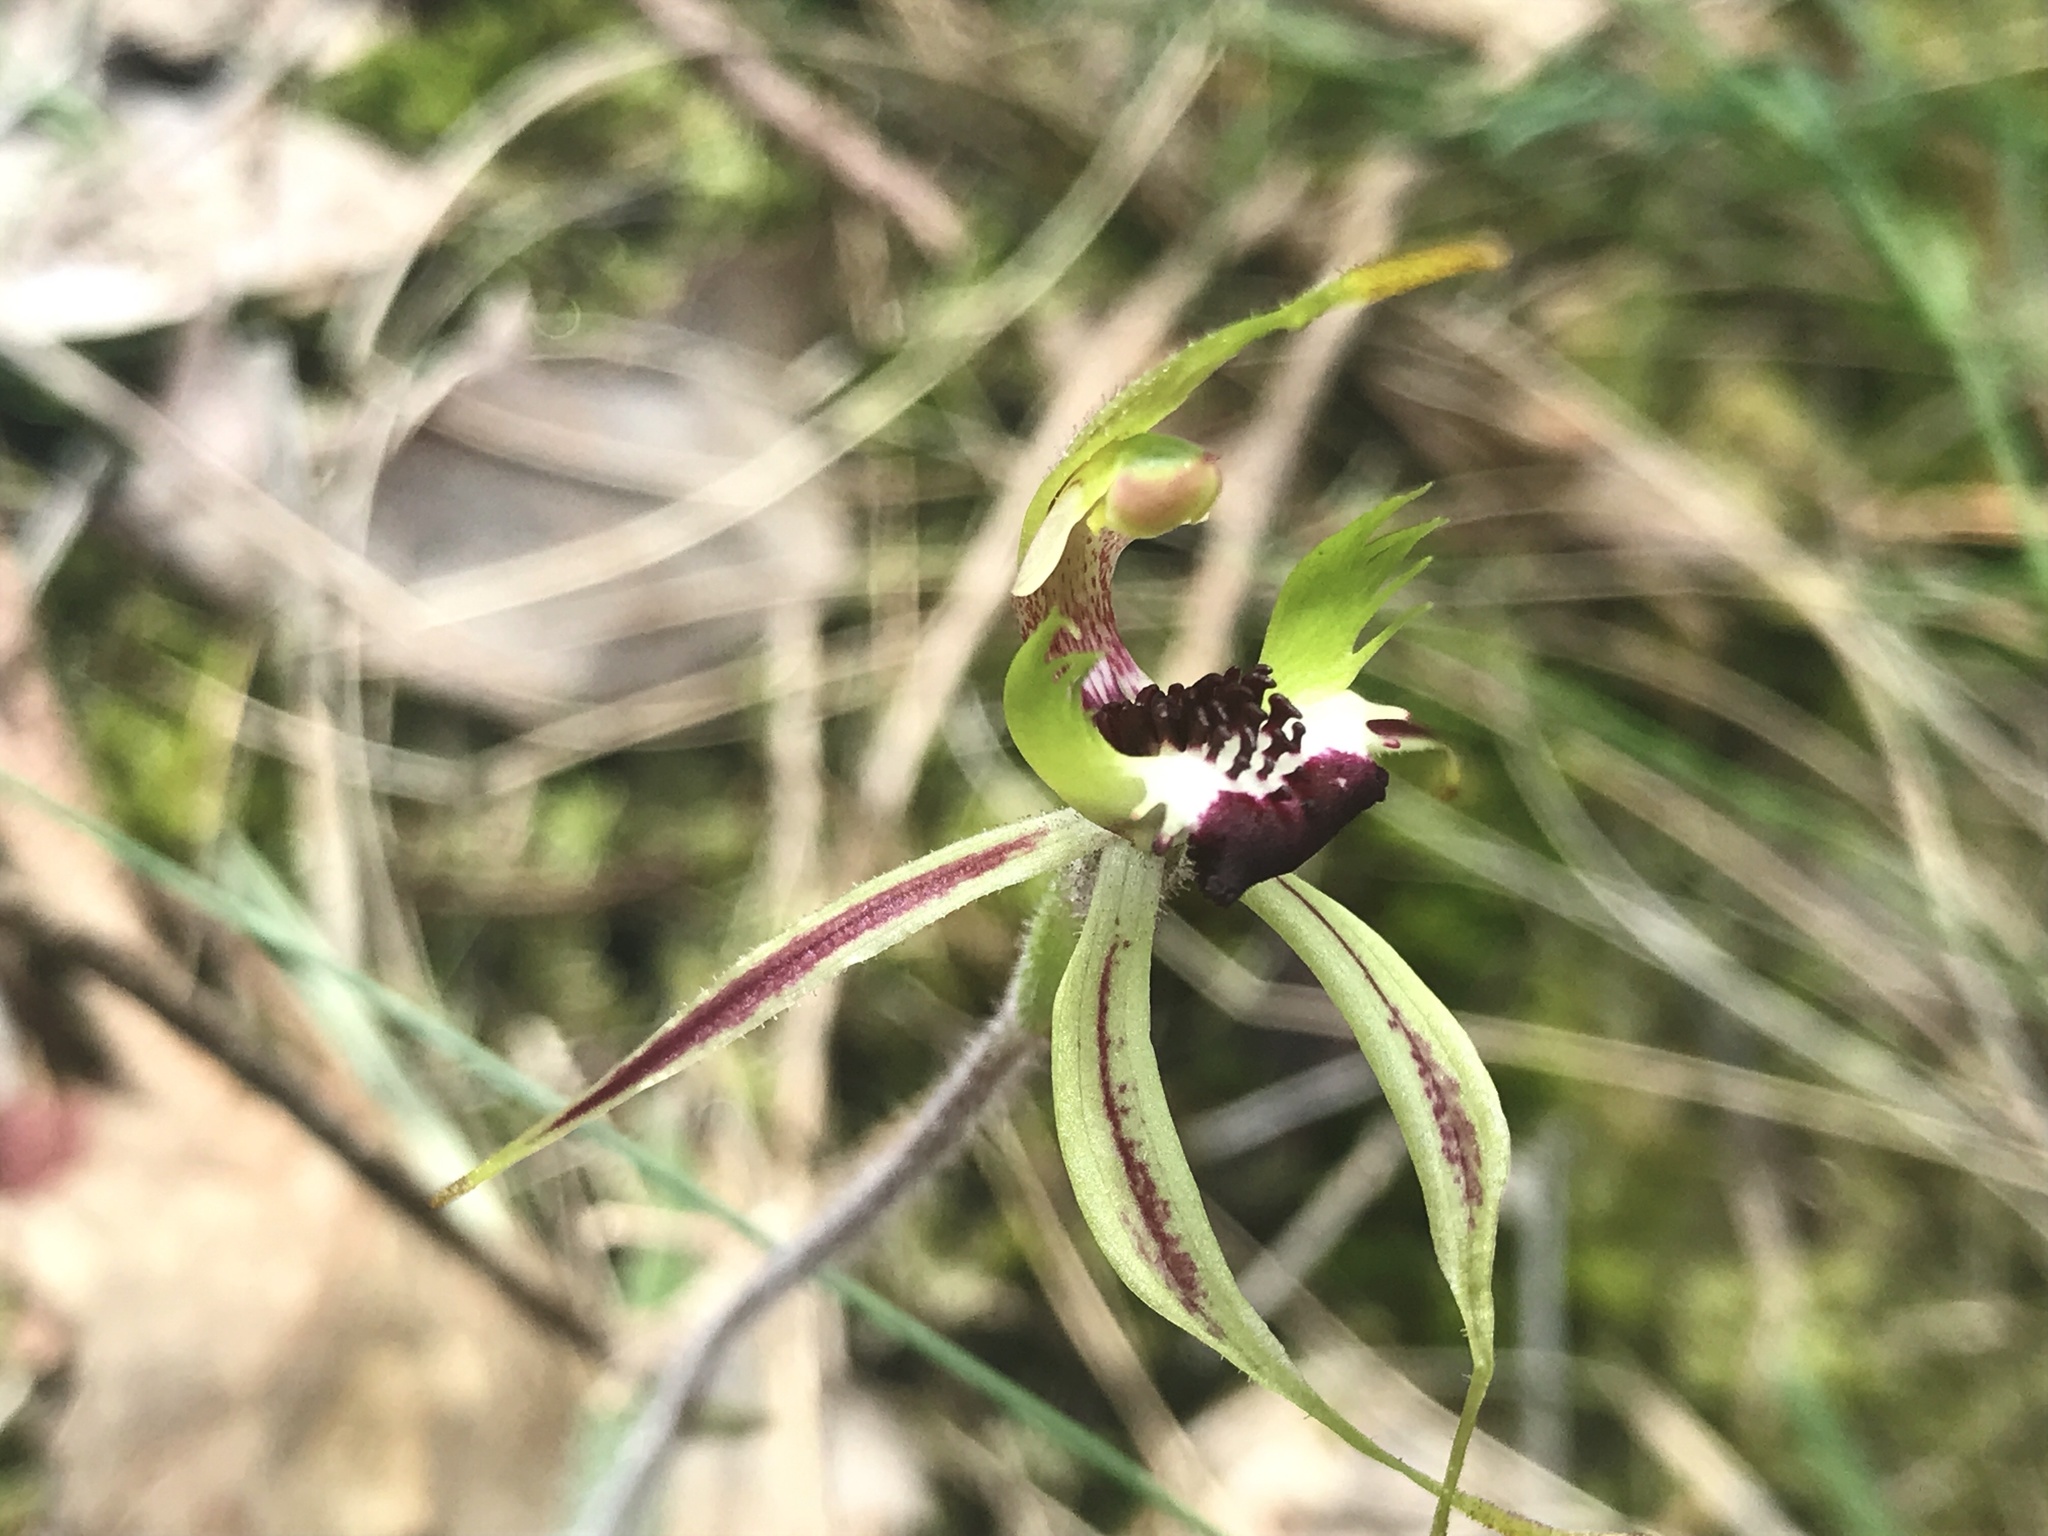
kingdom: Plantae
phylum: Tracheophyta
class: Liliopsida
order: Asparagales
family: Orchidaceae
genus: Caladenia
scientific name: Caladenia parva
